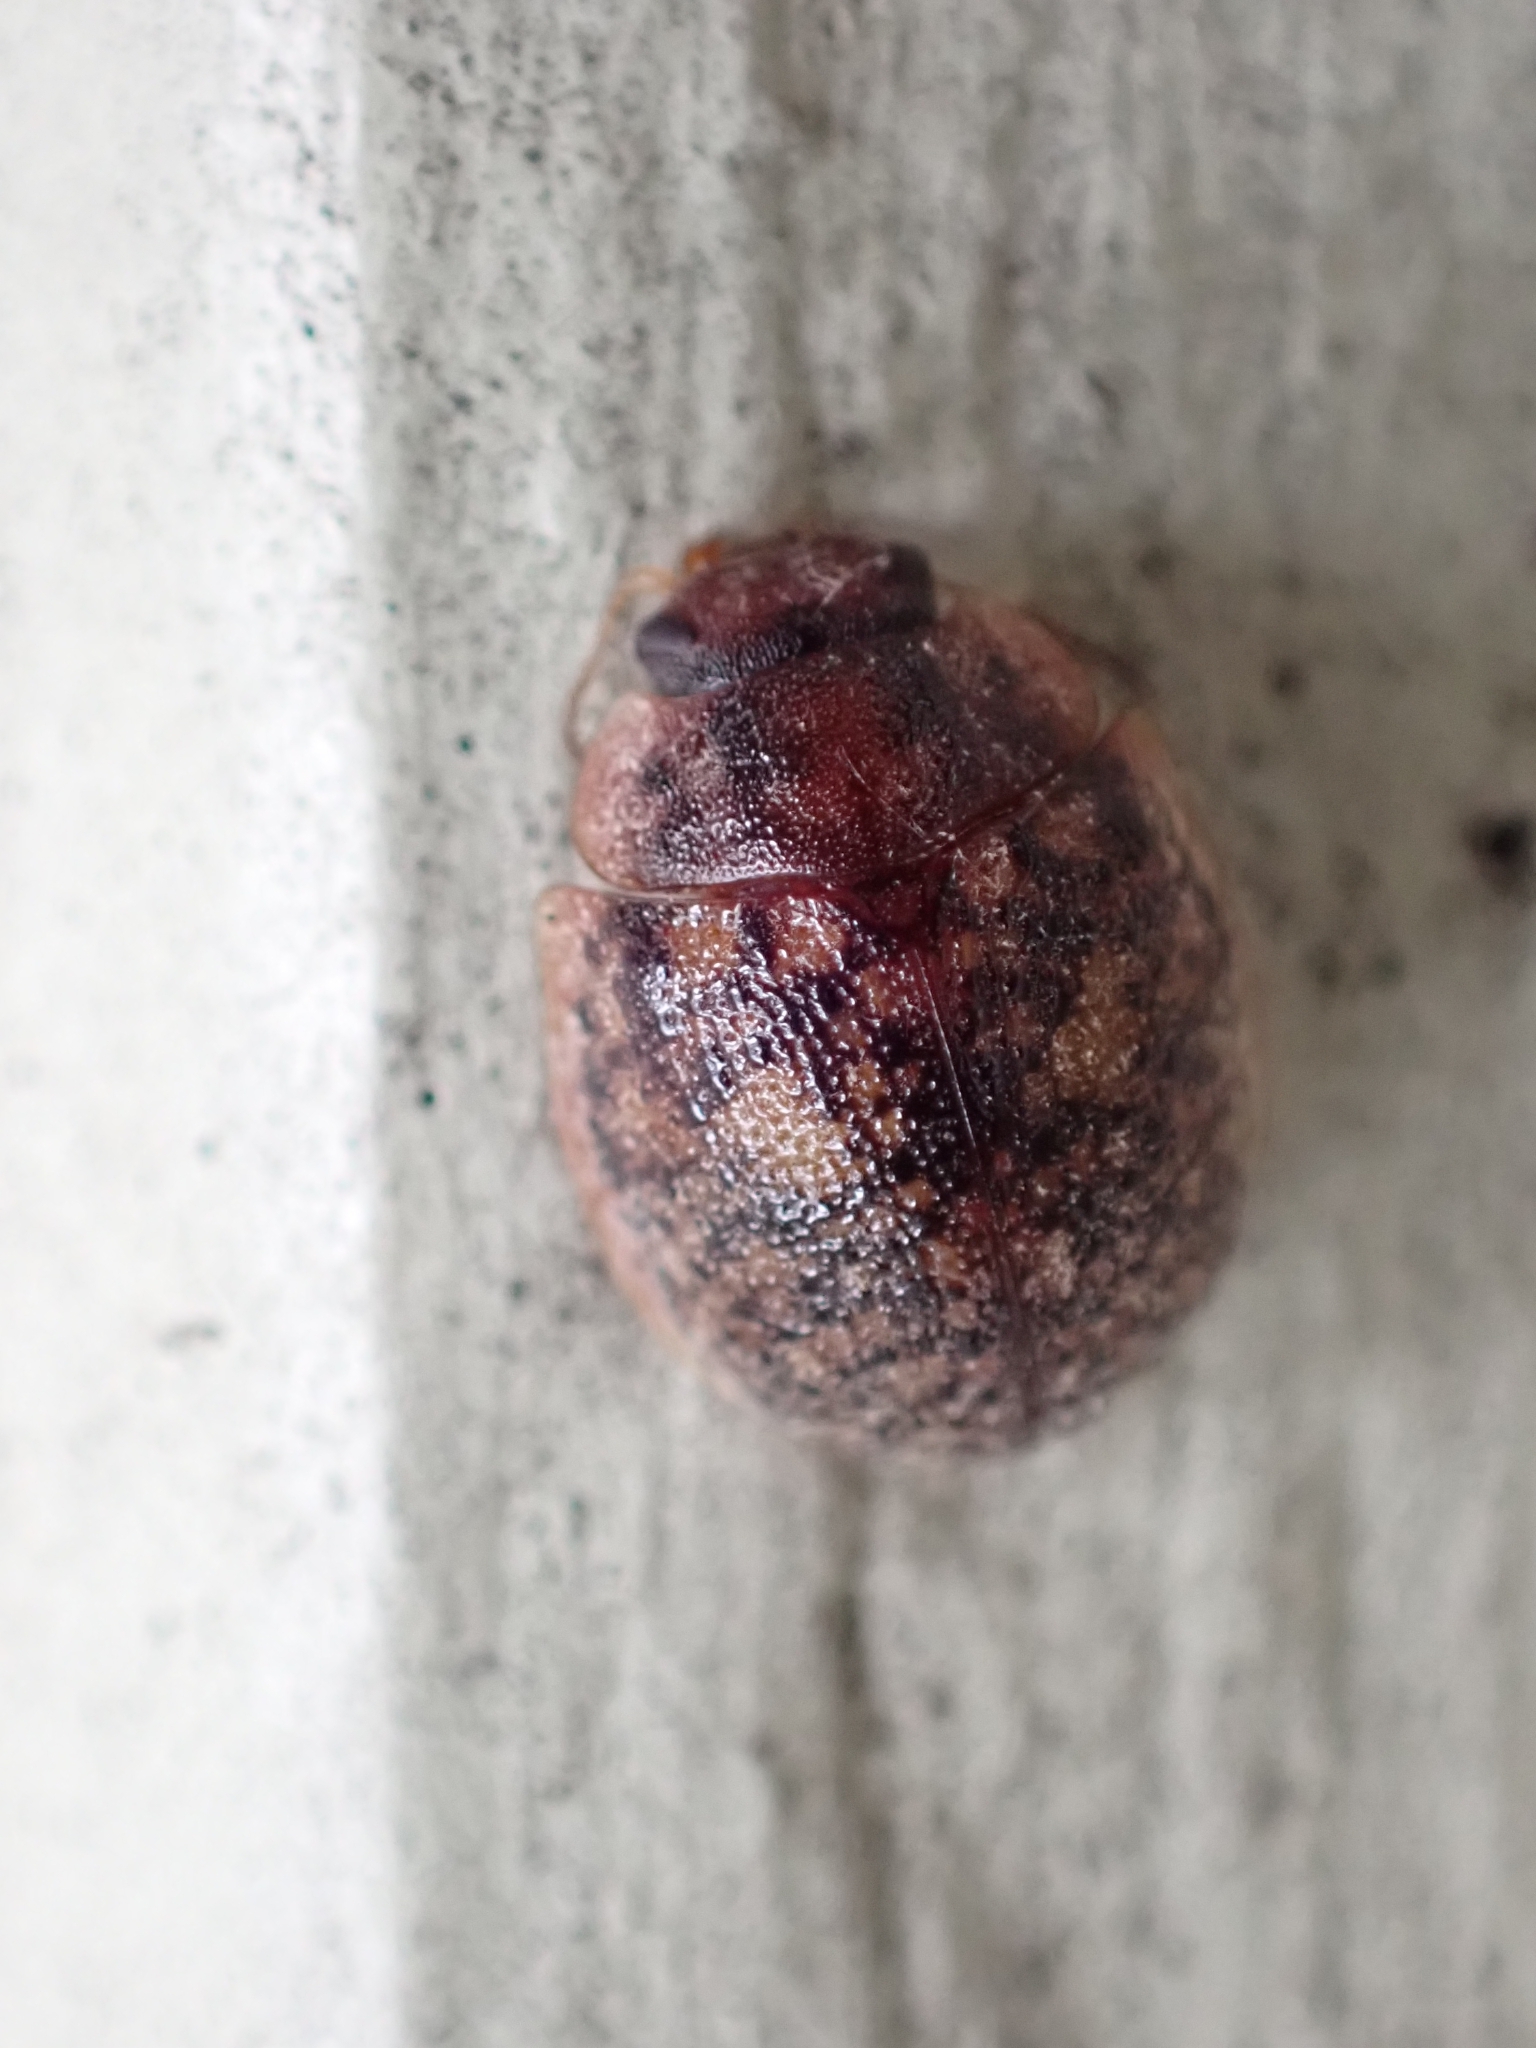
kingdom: Animalia
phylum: Arthropoda
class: Insecta
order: Coleoptera
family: Chrysomelidae
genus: Trachymela
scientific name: Trachymela sloanei
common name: Australian tortoise beetle
